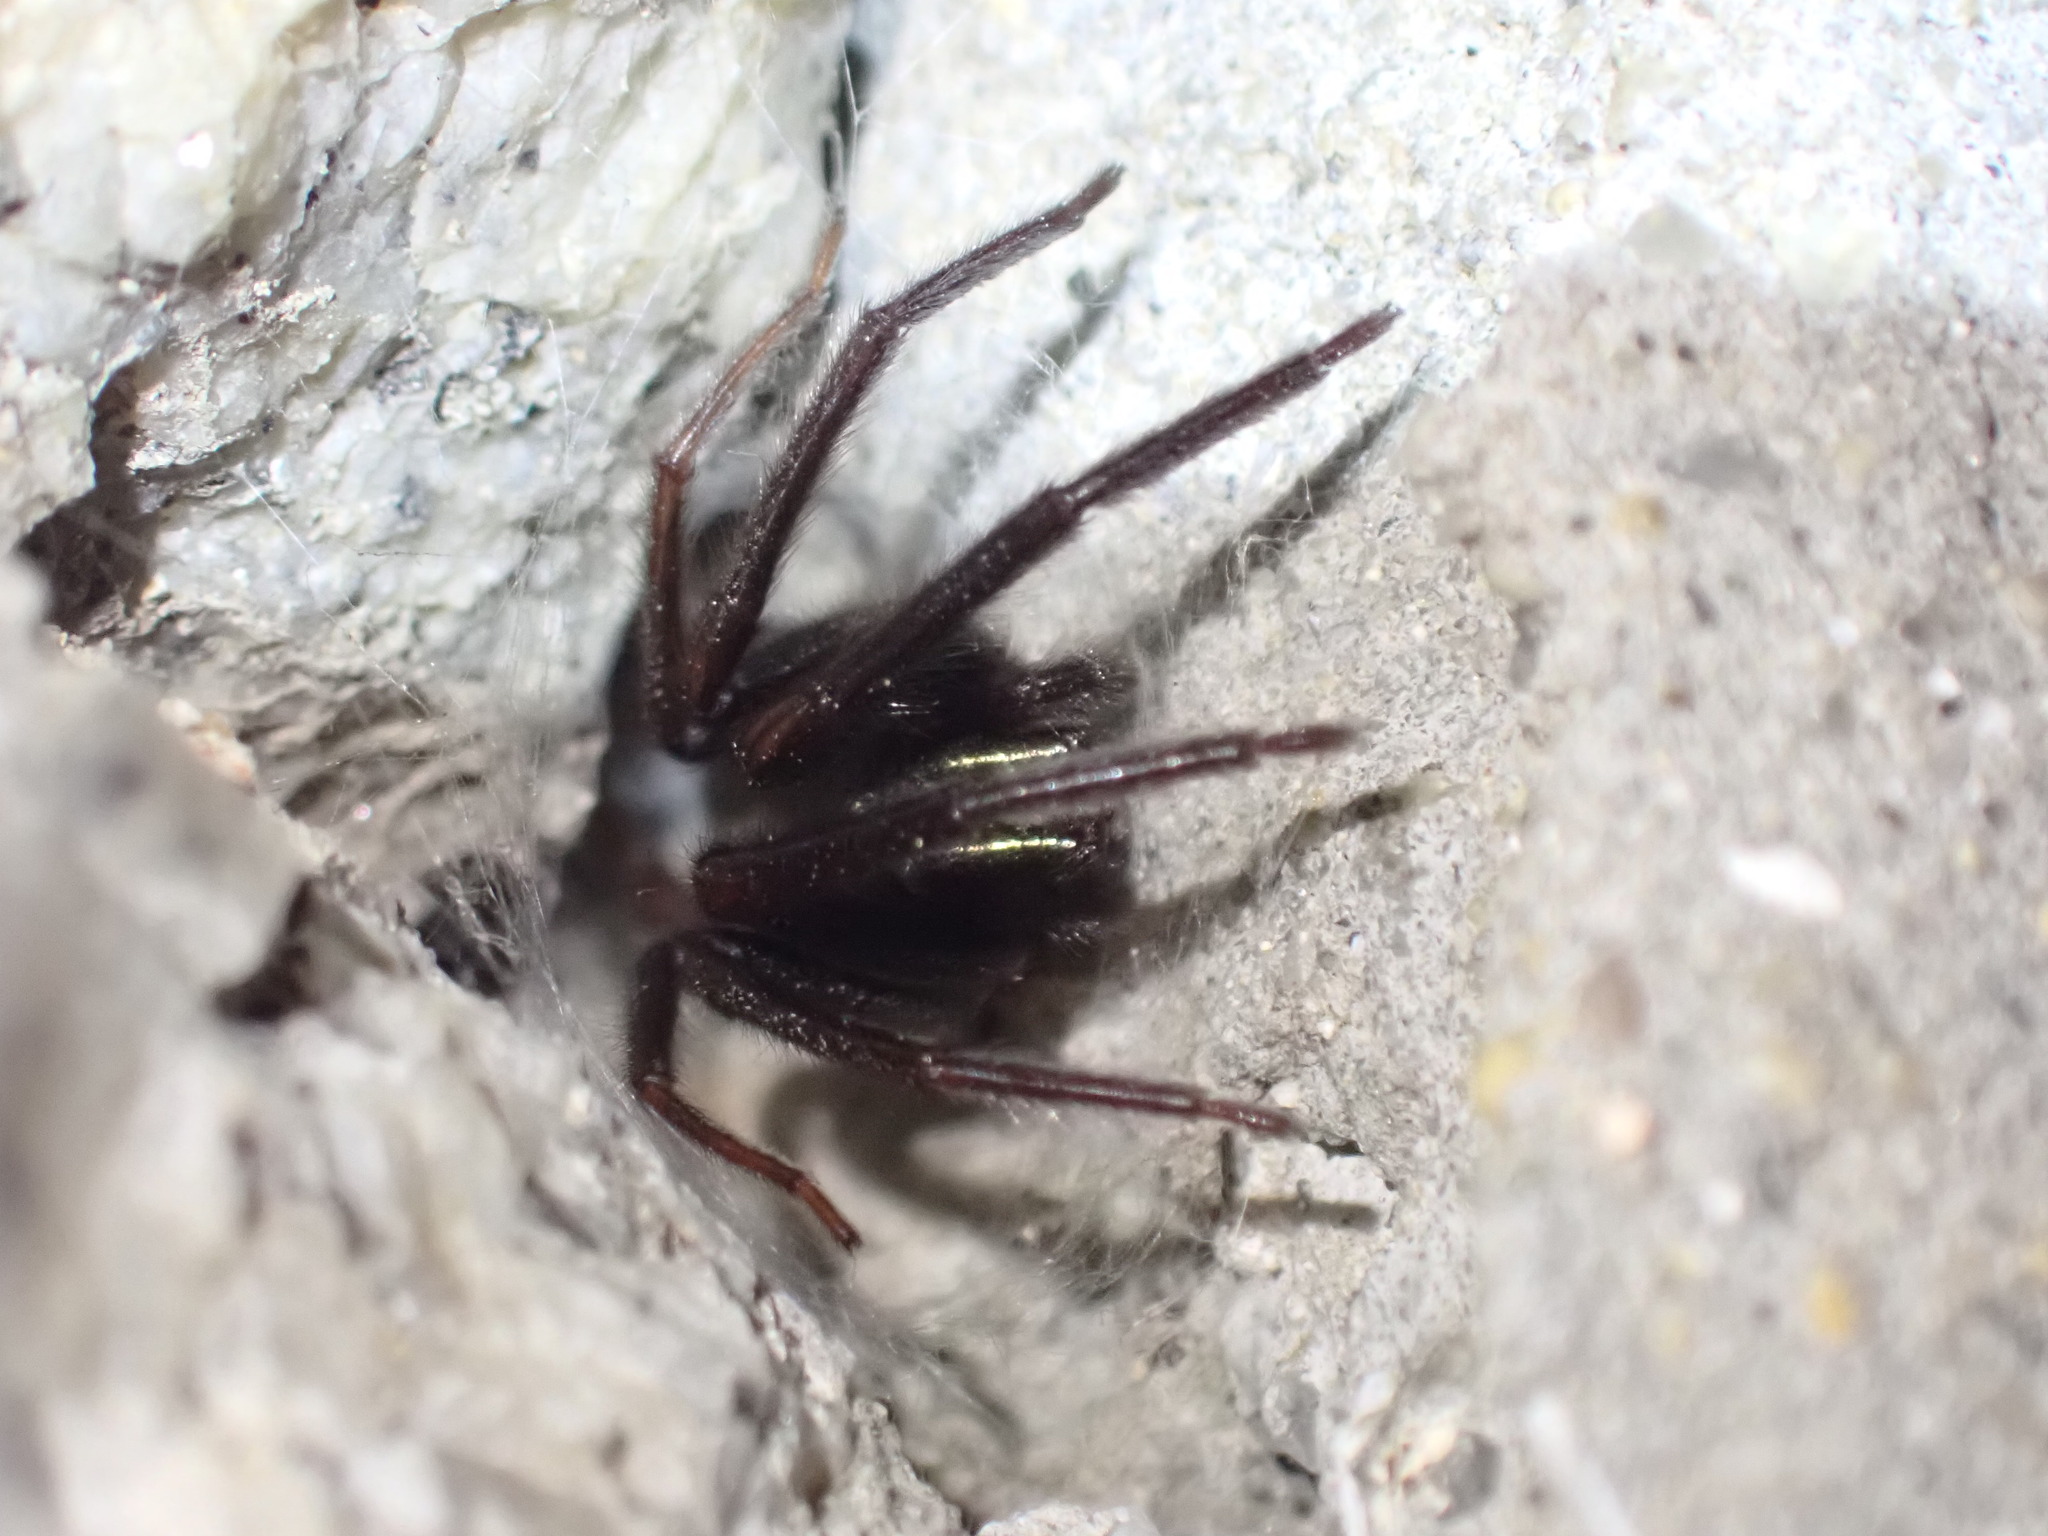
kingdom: Animalia
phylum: Arthropoda
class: Arachnida
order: Araneae
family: Segestriidae
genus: Segestria
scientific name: Segestria florentina
